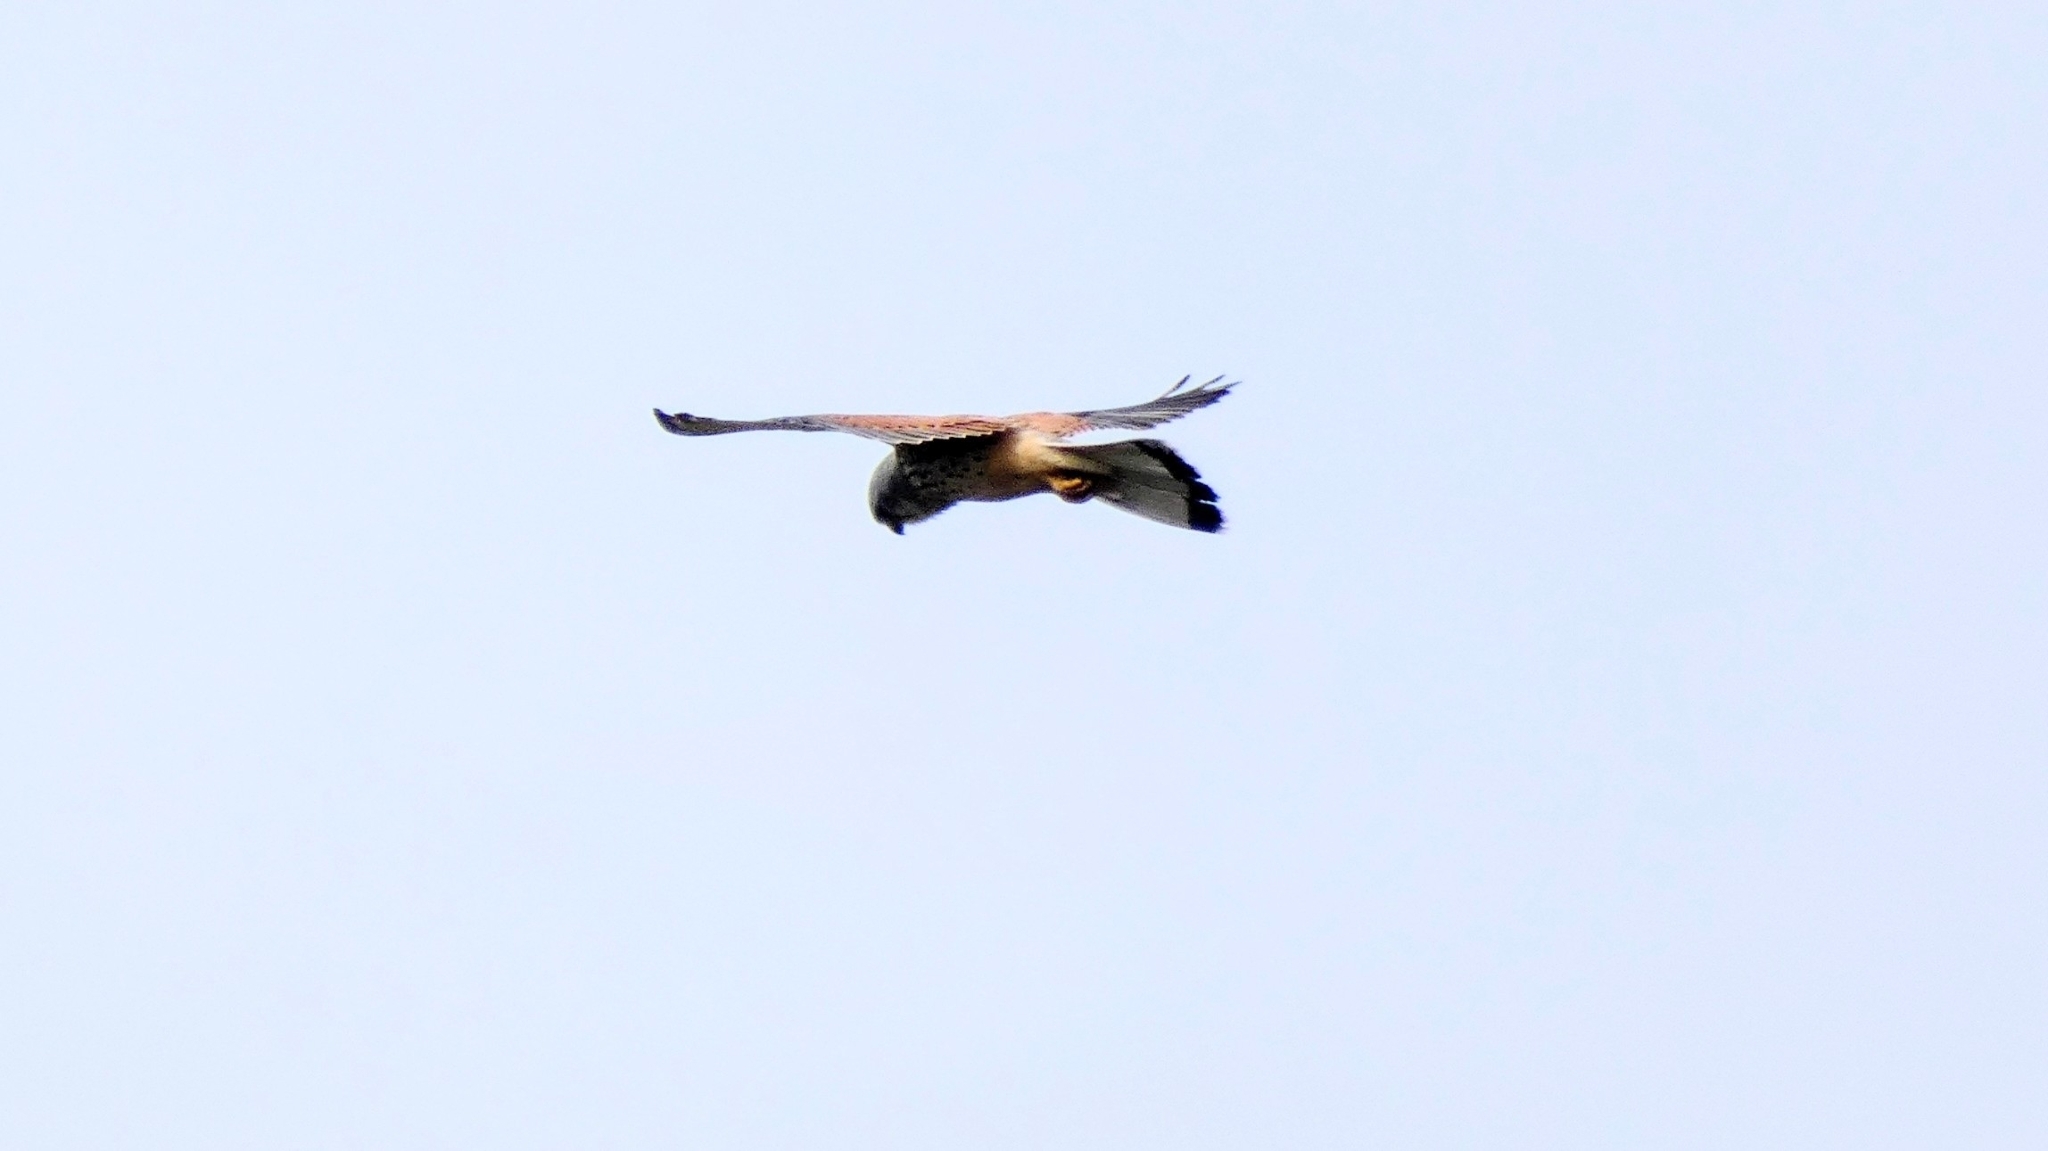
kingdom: Animalia
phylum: Chordata
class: Aves
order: Falconiformes
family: Falconidae
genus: Falco
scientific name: Falco tinnunculus
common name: Common kestrel
